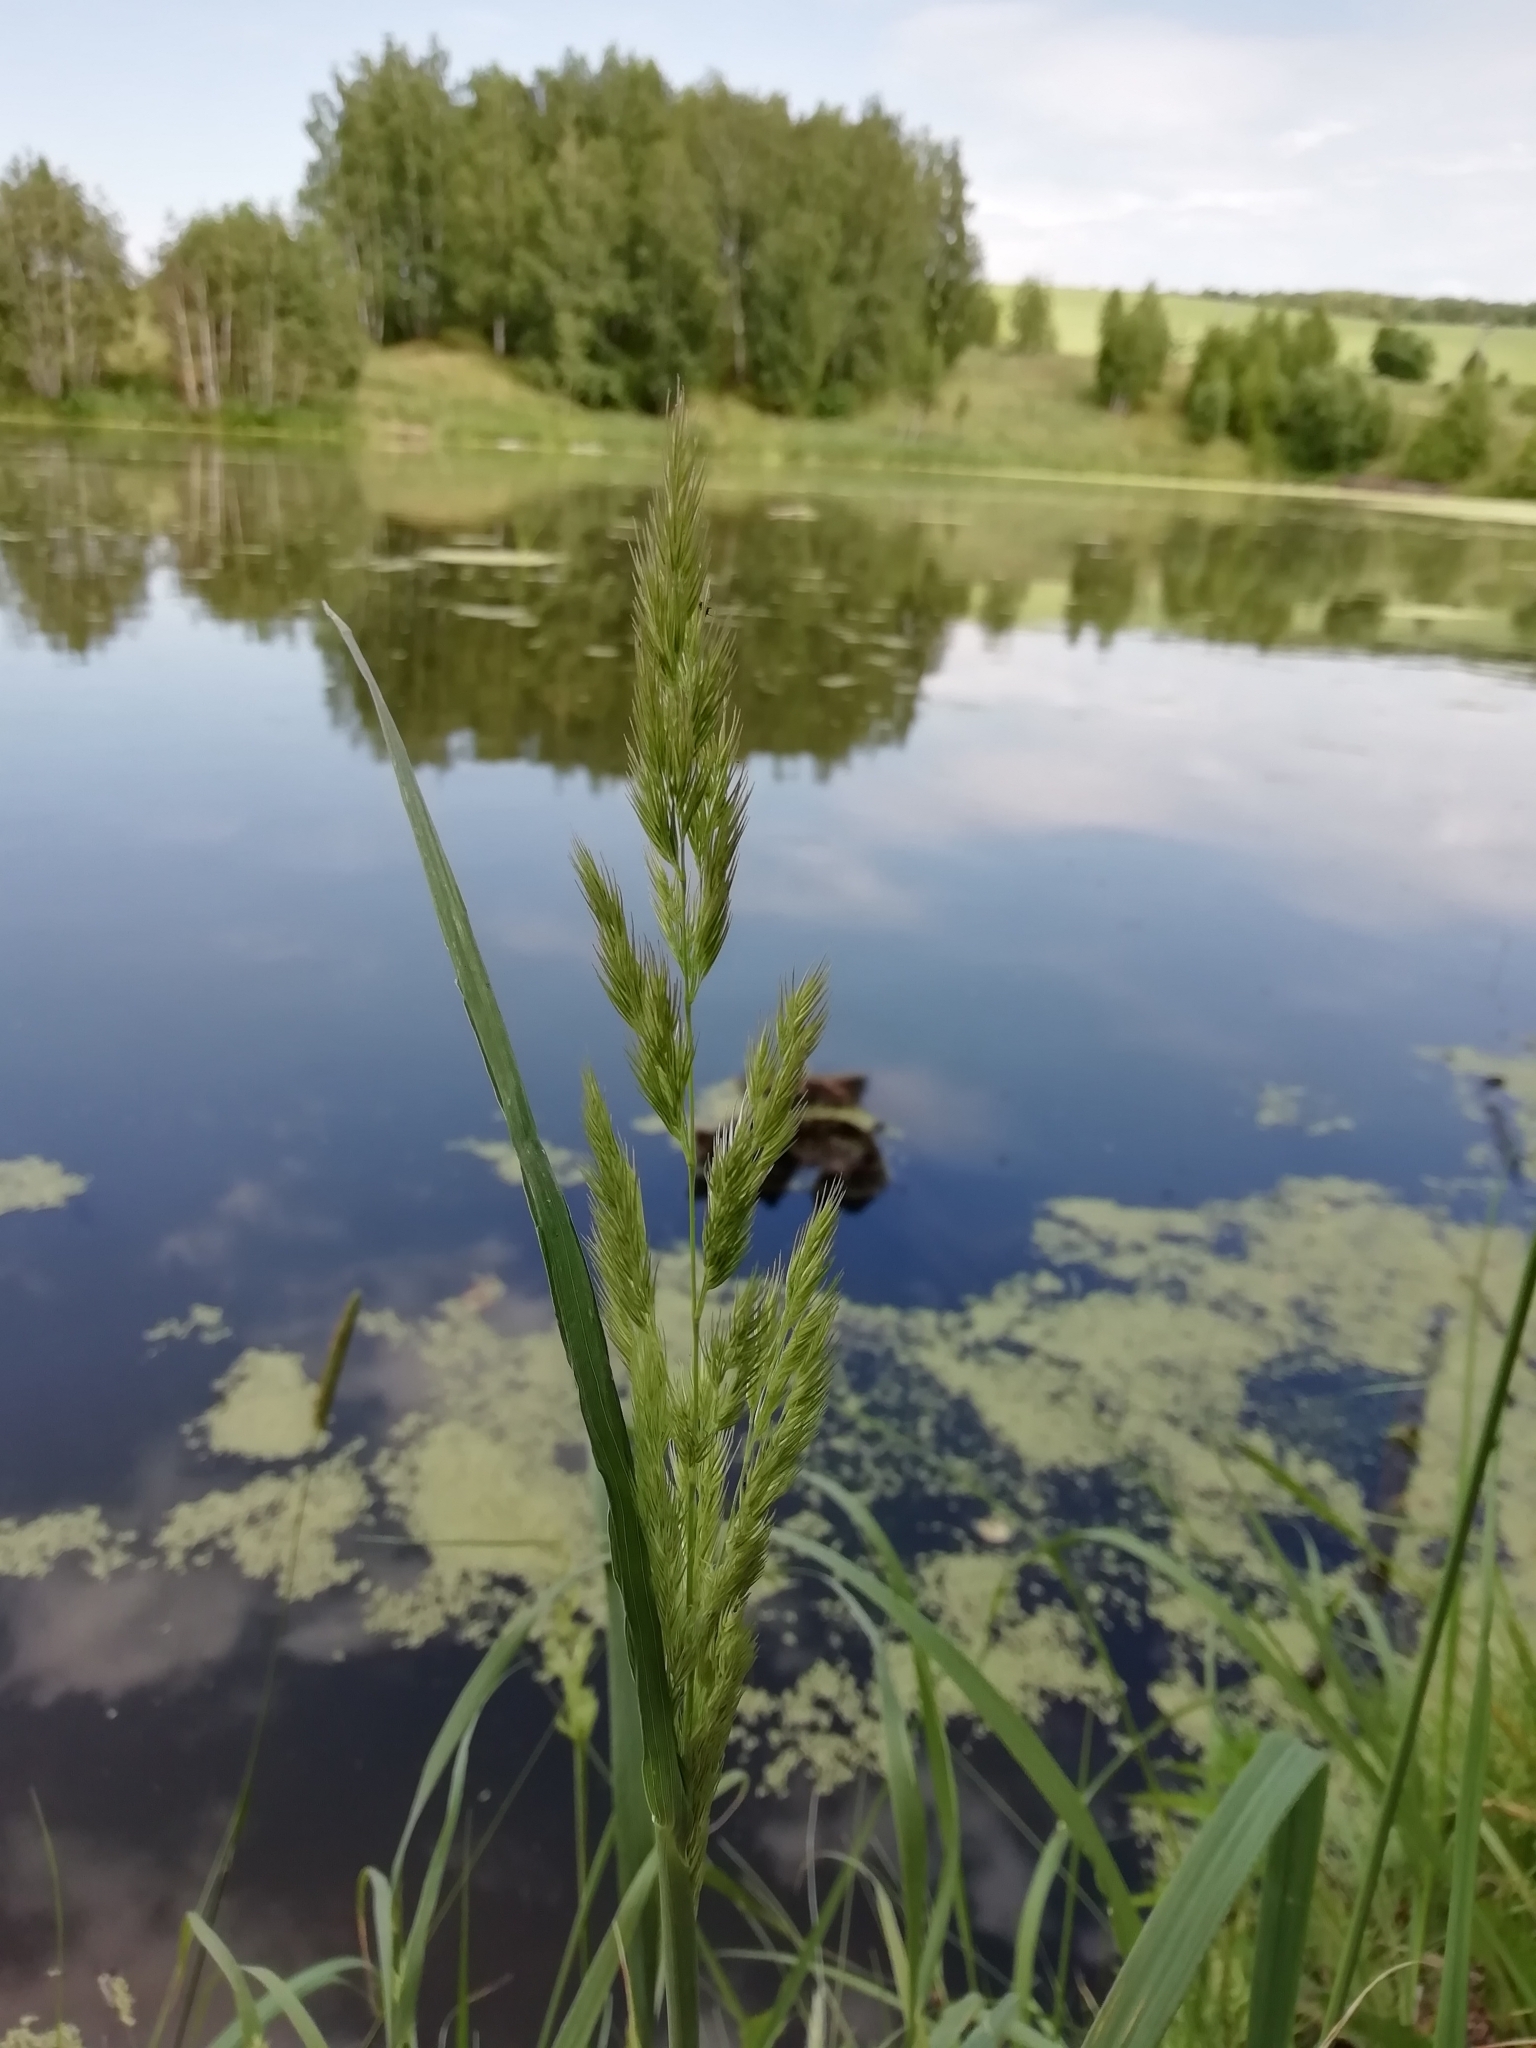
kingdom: Plantae
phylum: Tracheophyta
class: Liliopsida
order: Poales
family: Poaceae
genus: Calamagrostis
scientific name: Calamagrostis epigejos
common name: Wood small-reed
